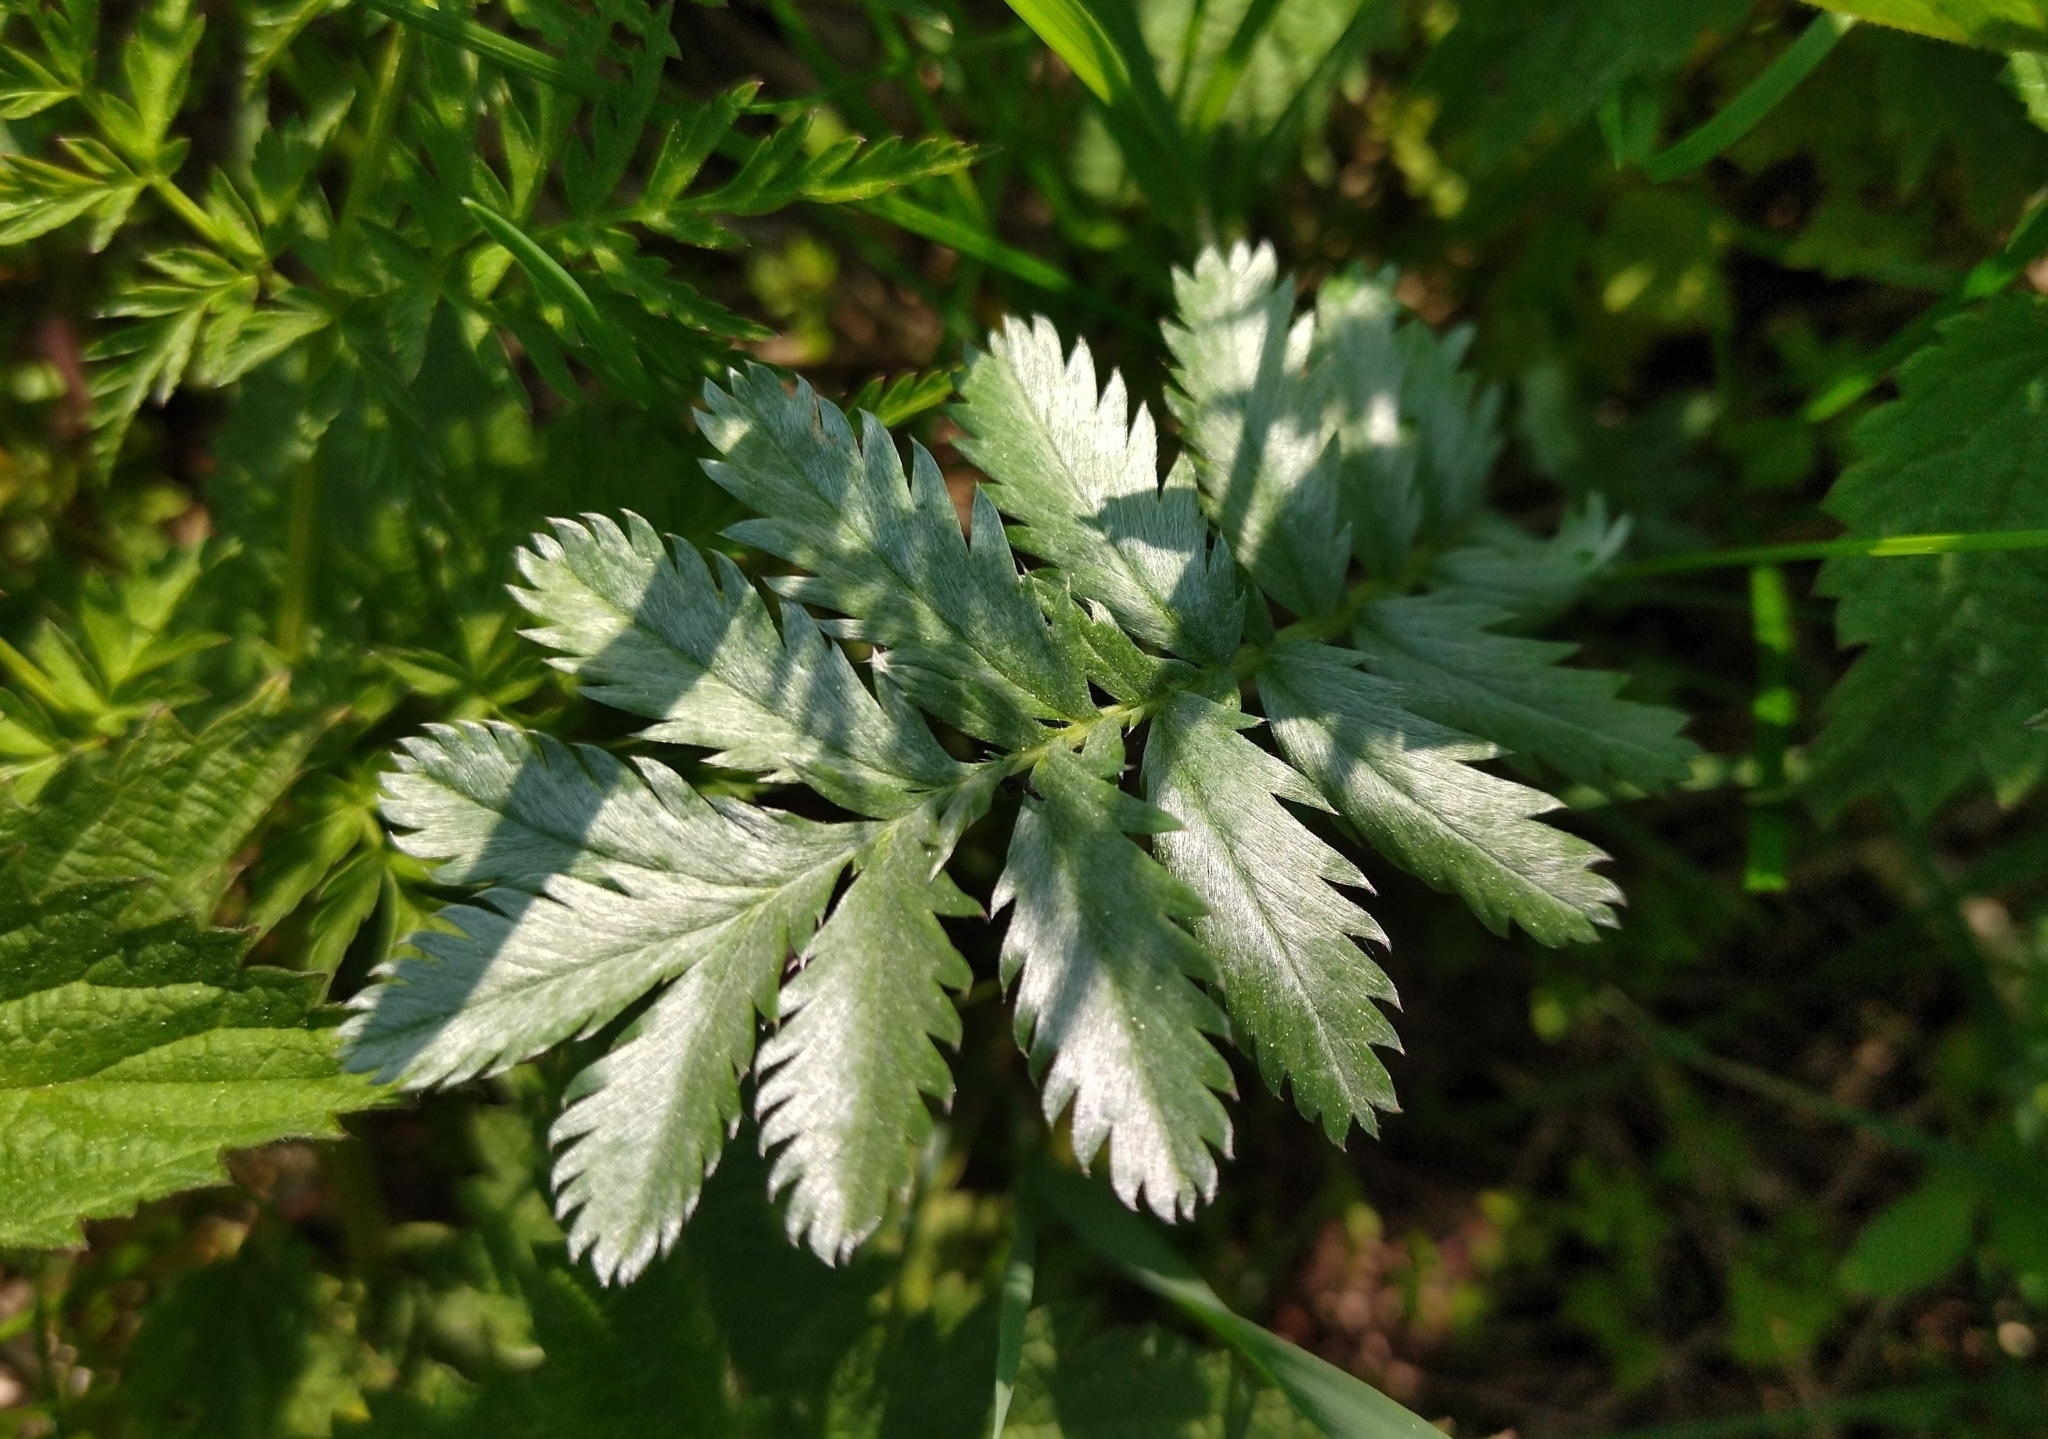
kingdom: Plantae
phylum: Tracheophyta
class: Magnoliopsida
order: Rosales
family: Rosaceae
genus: Argentina
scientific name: Argentina anserina
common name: Common silverweed
